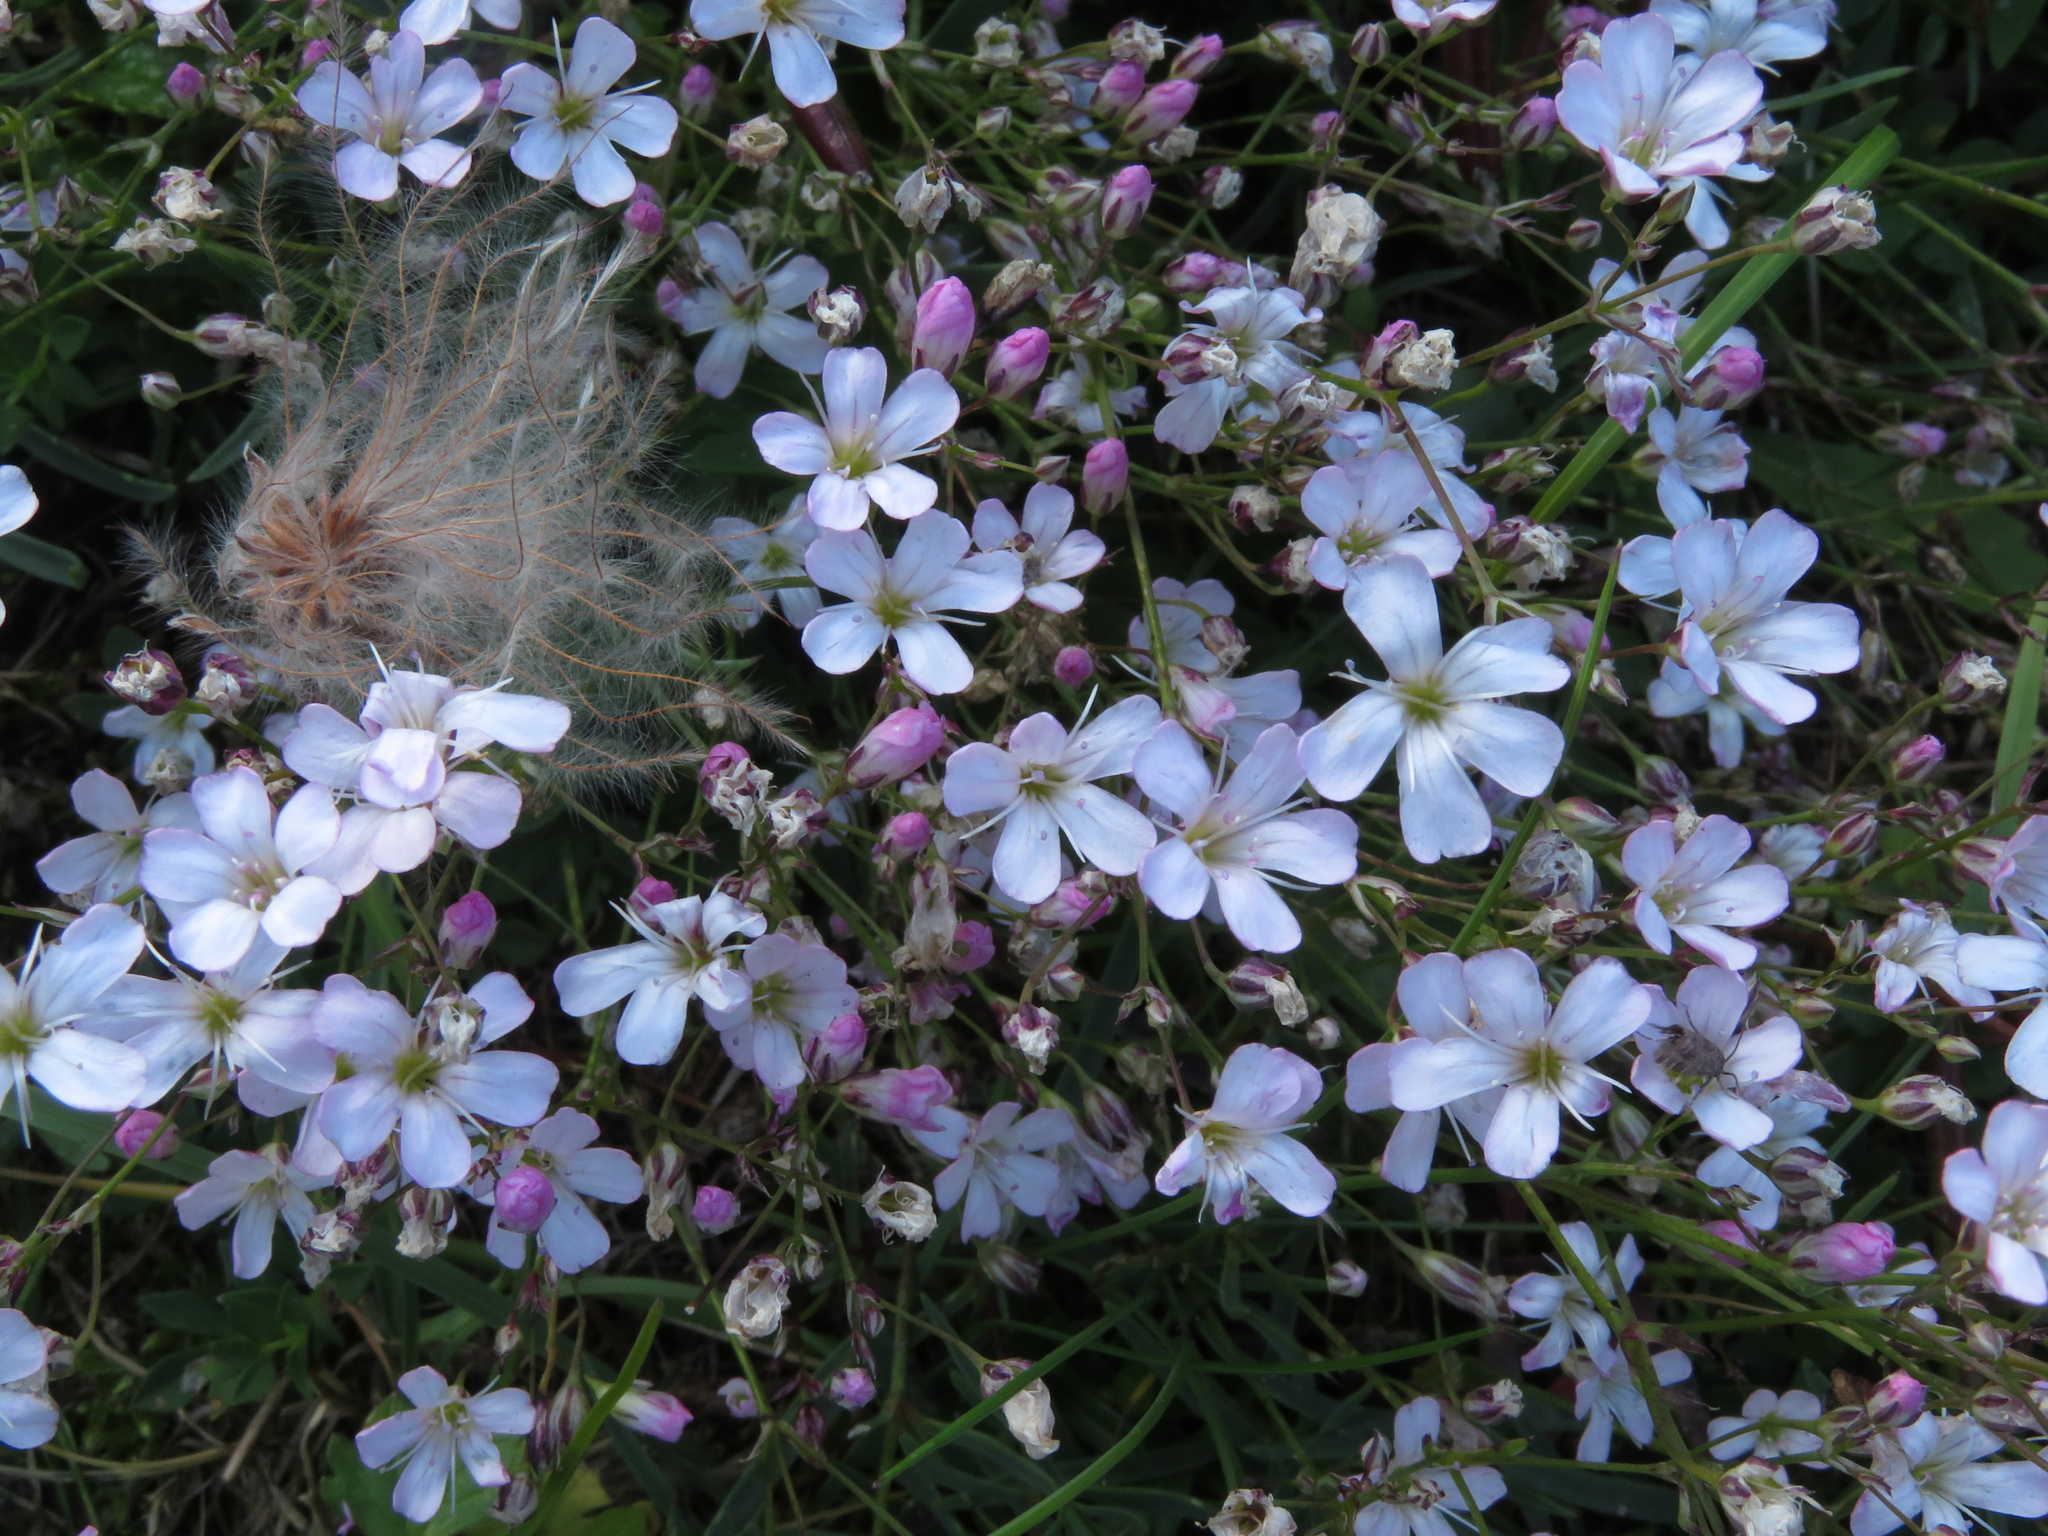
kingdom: Plantae
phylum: Tracheophyta
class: Magnoliopsida
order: Caryophyllales
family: Caryophyllaceae
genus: Gypsophila
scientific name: Gypsophila repens
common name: Creeping baby's-breath
